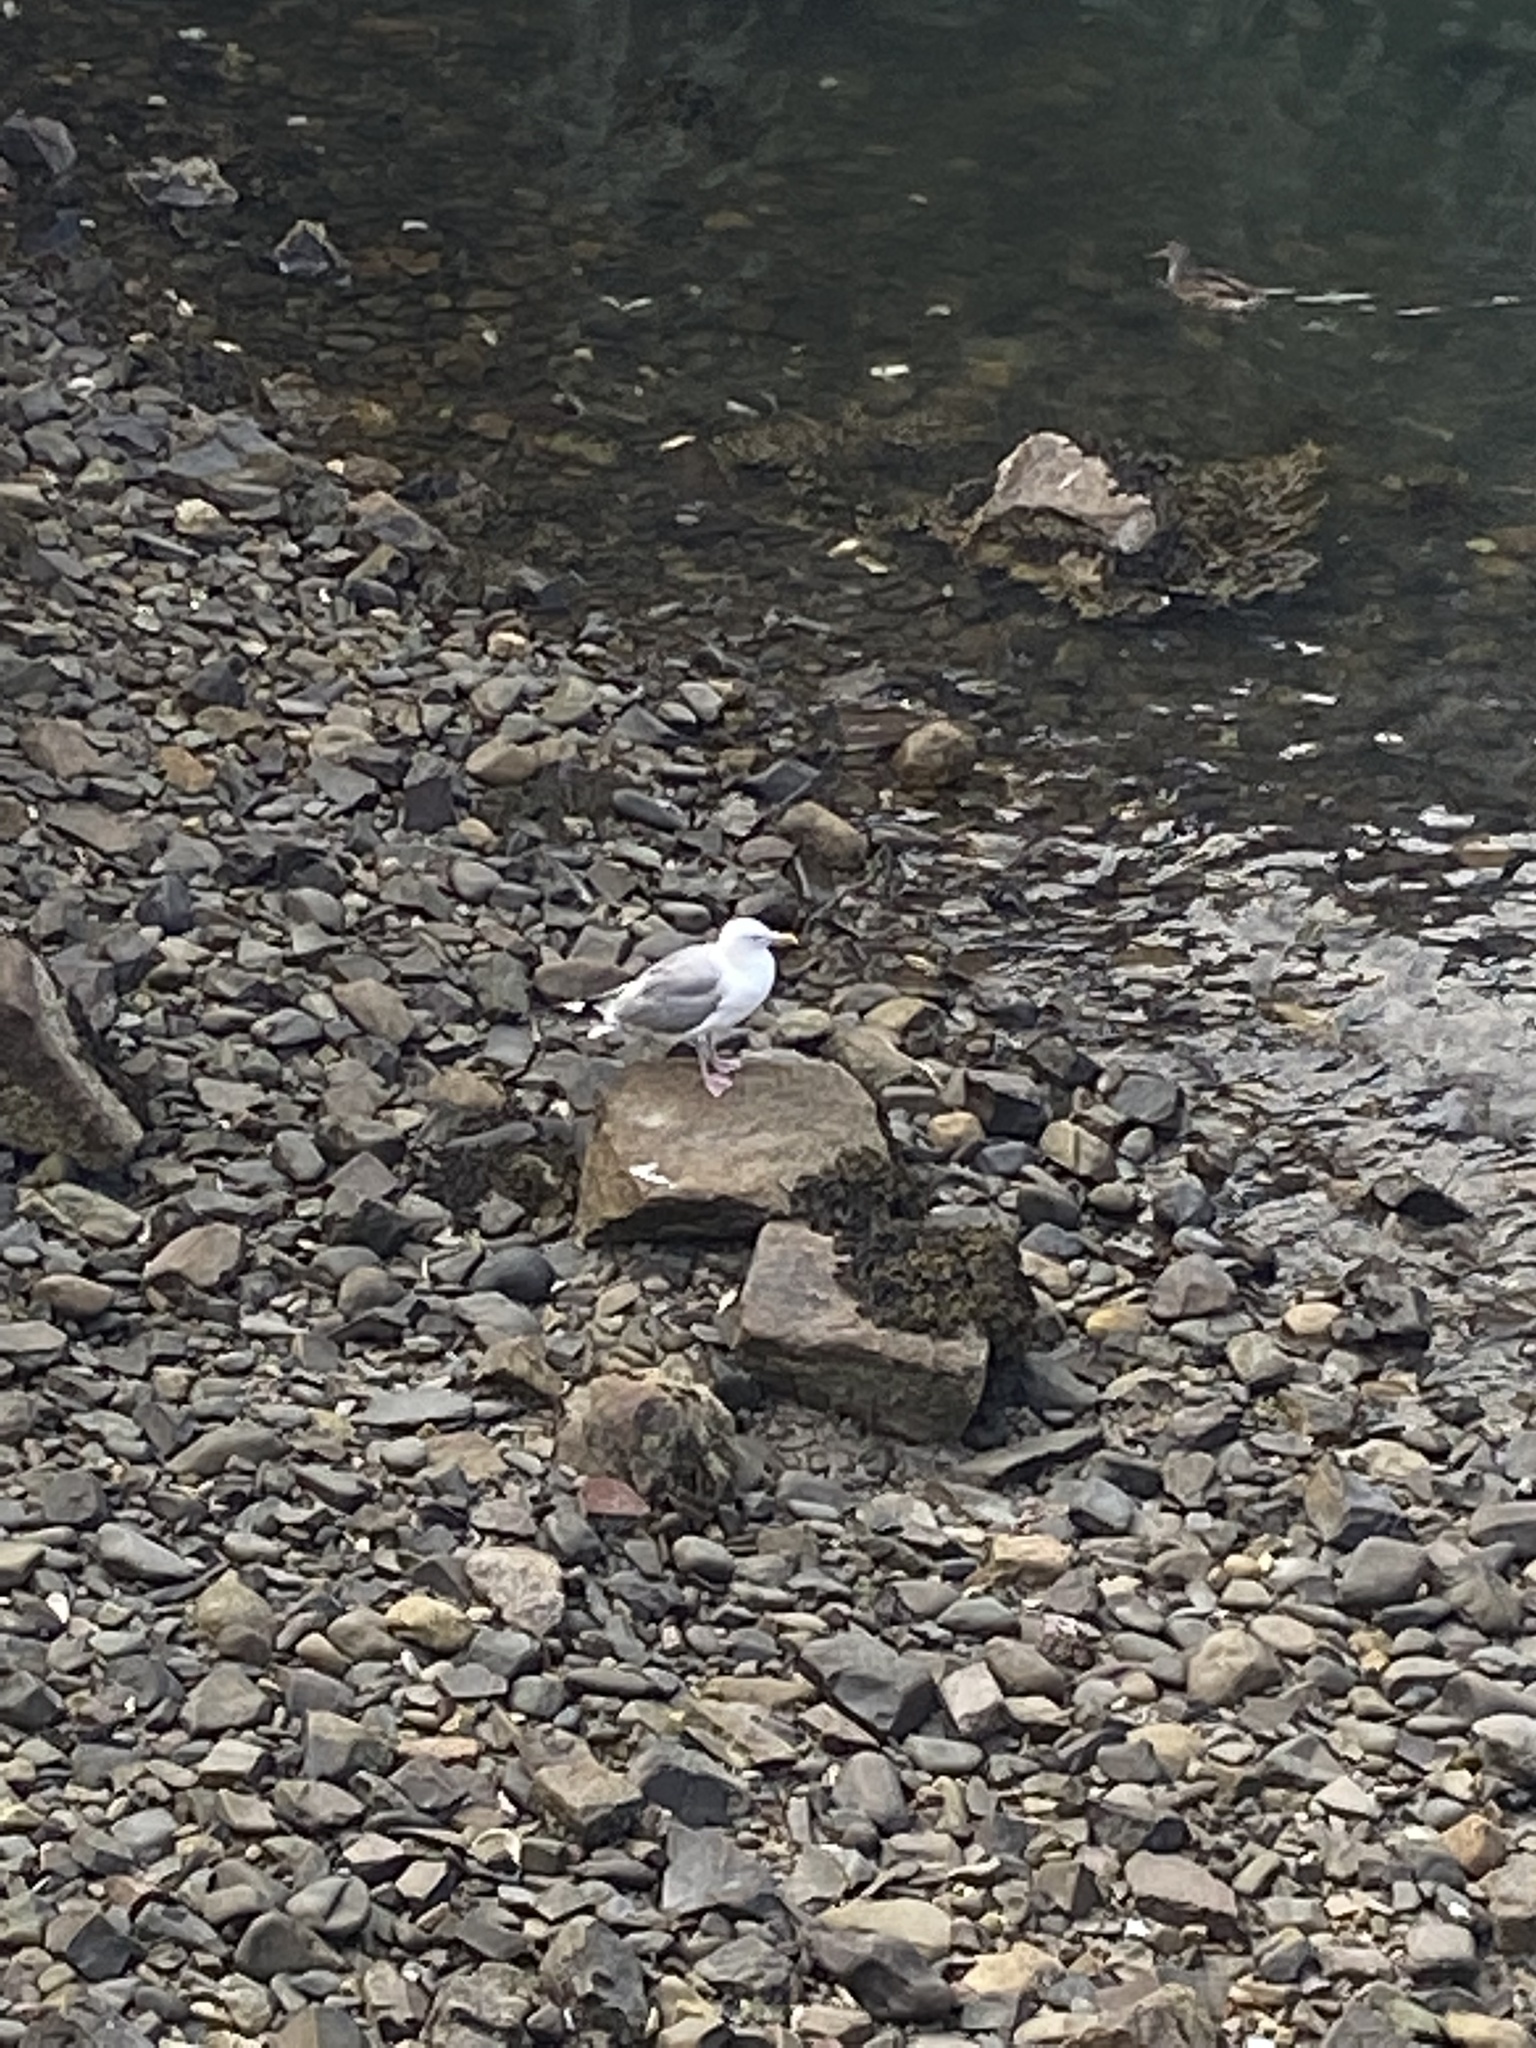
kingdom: Animalia
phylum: Chordata
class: Aves
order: Charadriiformes
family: Laridae
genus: Larus
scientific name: Larus argentatus
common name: Herring gull
